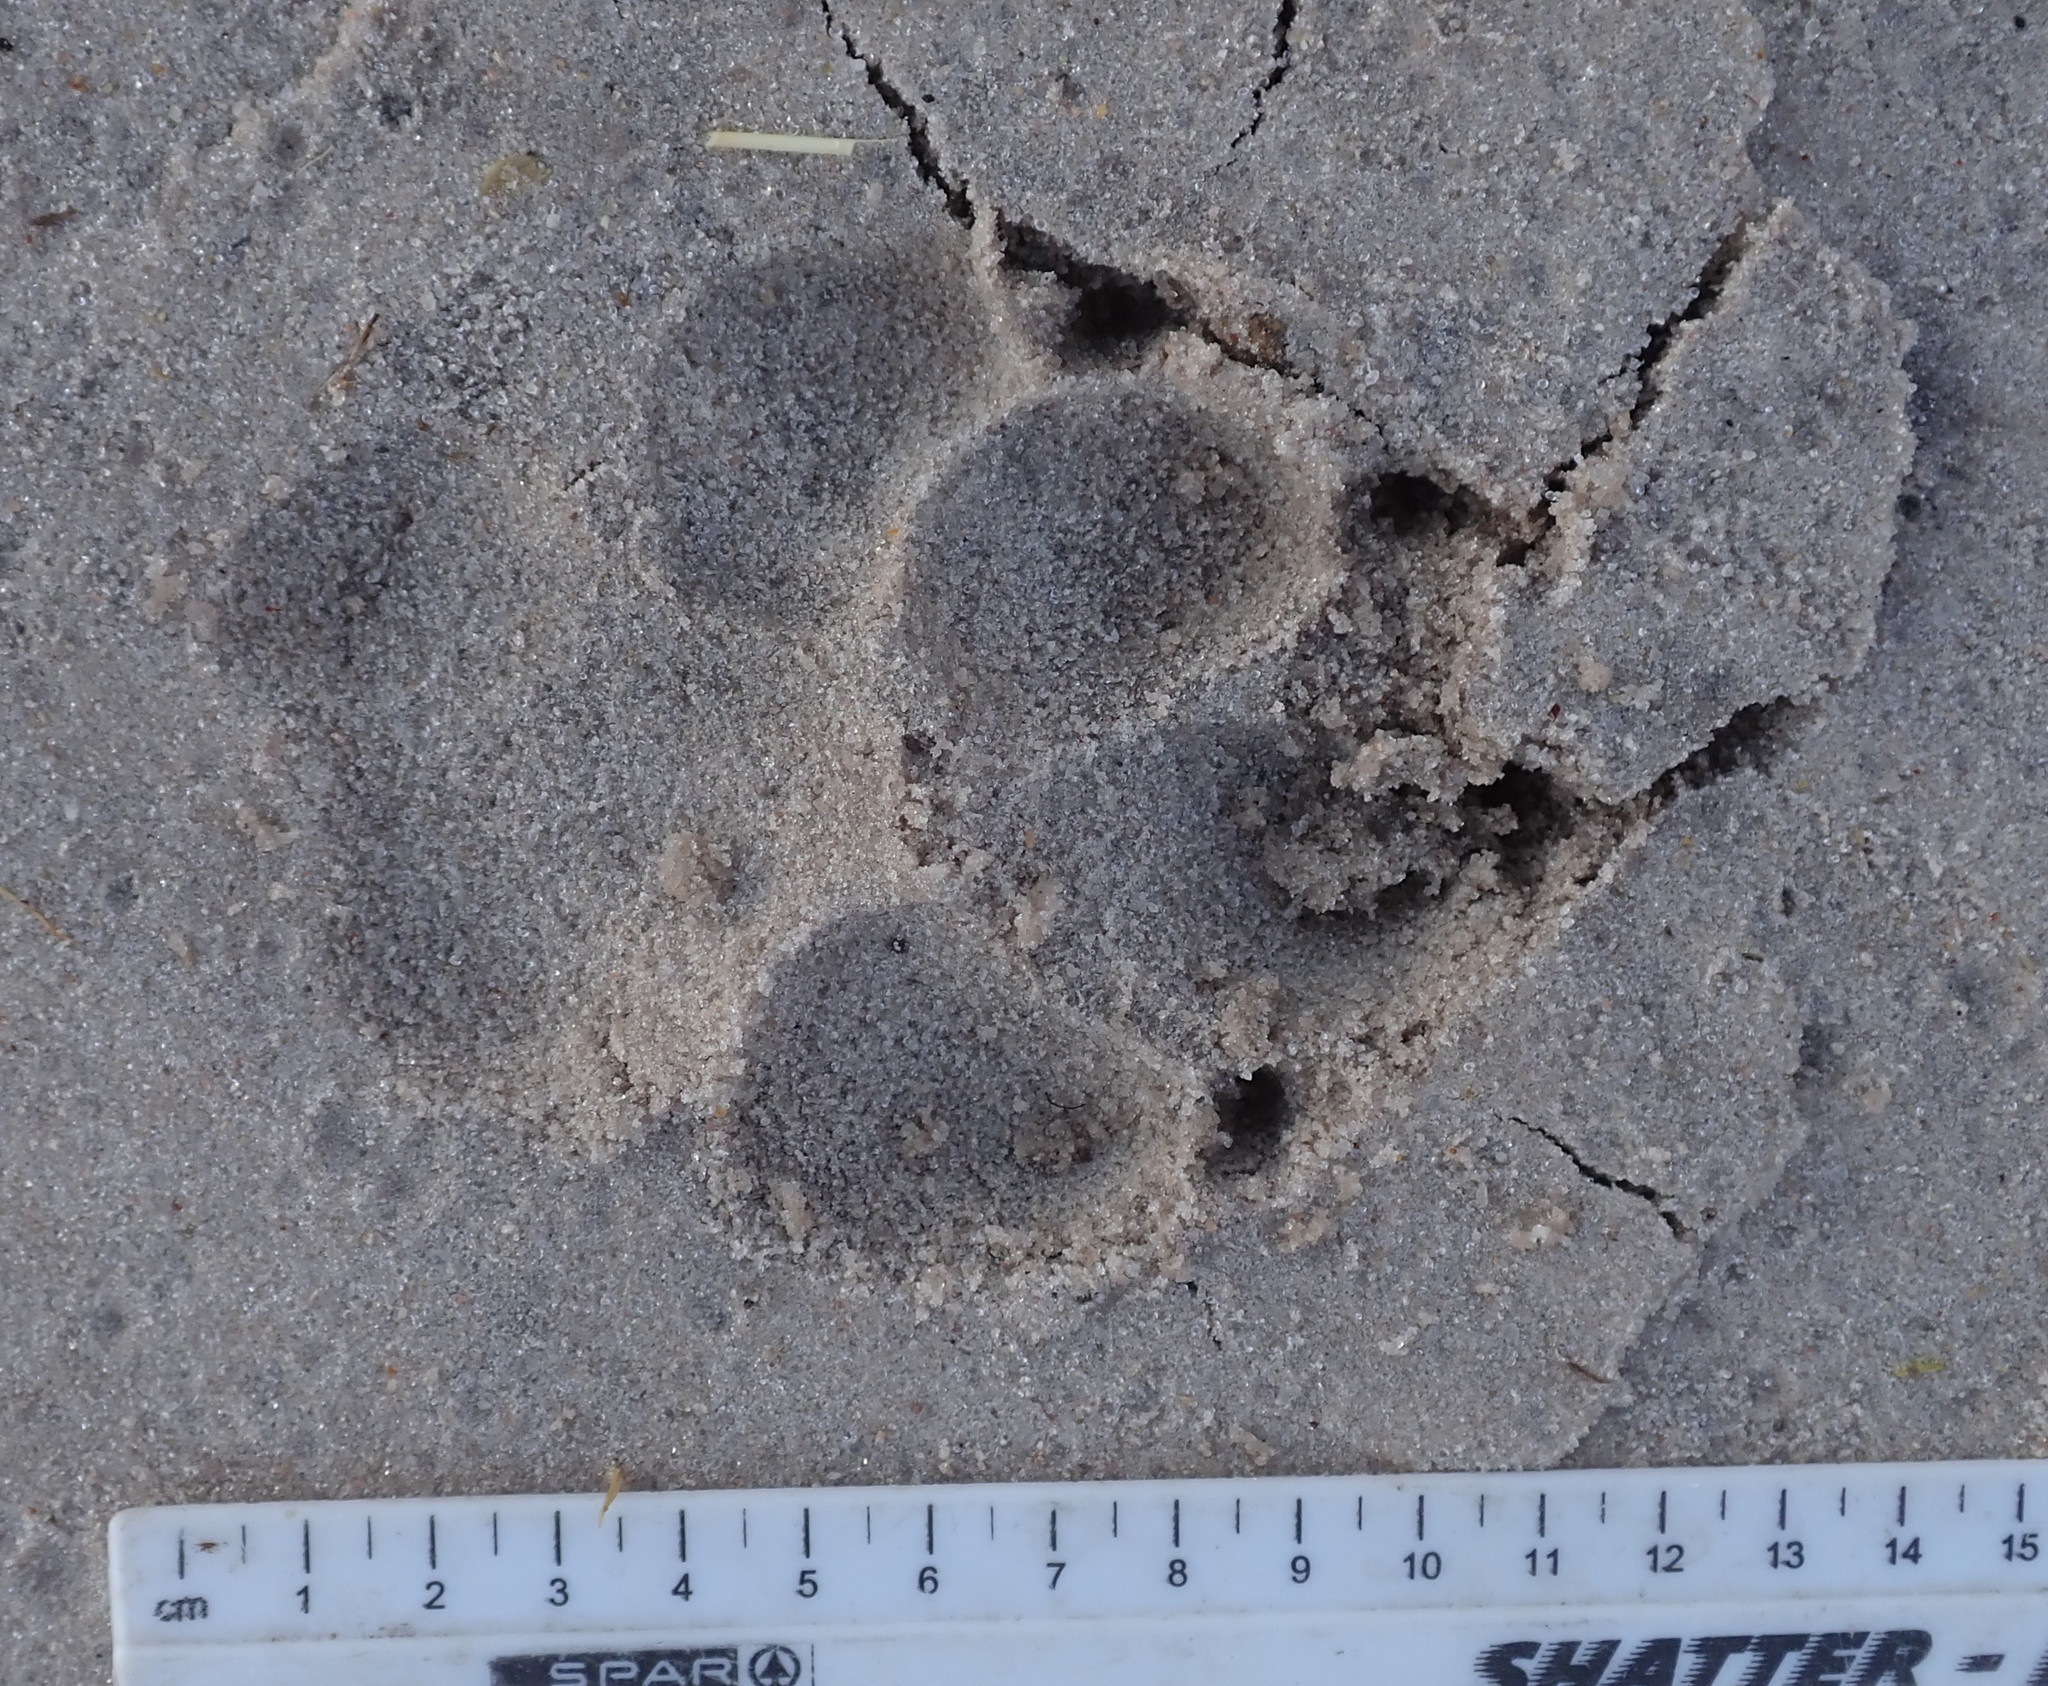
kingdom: Animalia
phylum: Chordata
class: Mammalia
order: Carnivora
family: Hyaenidae
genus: Hyaena
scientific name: Hyaena brunnea
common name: Brown hyena
